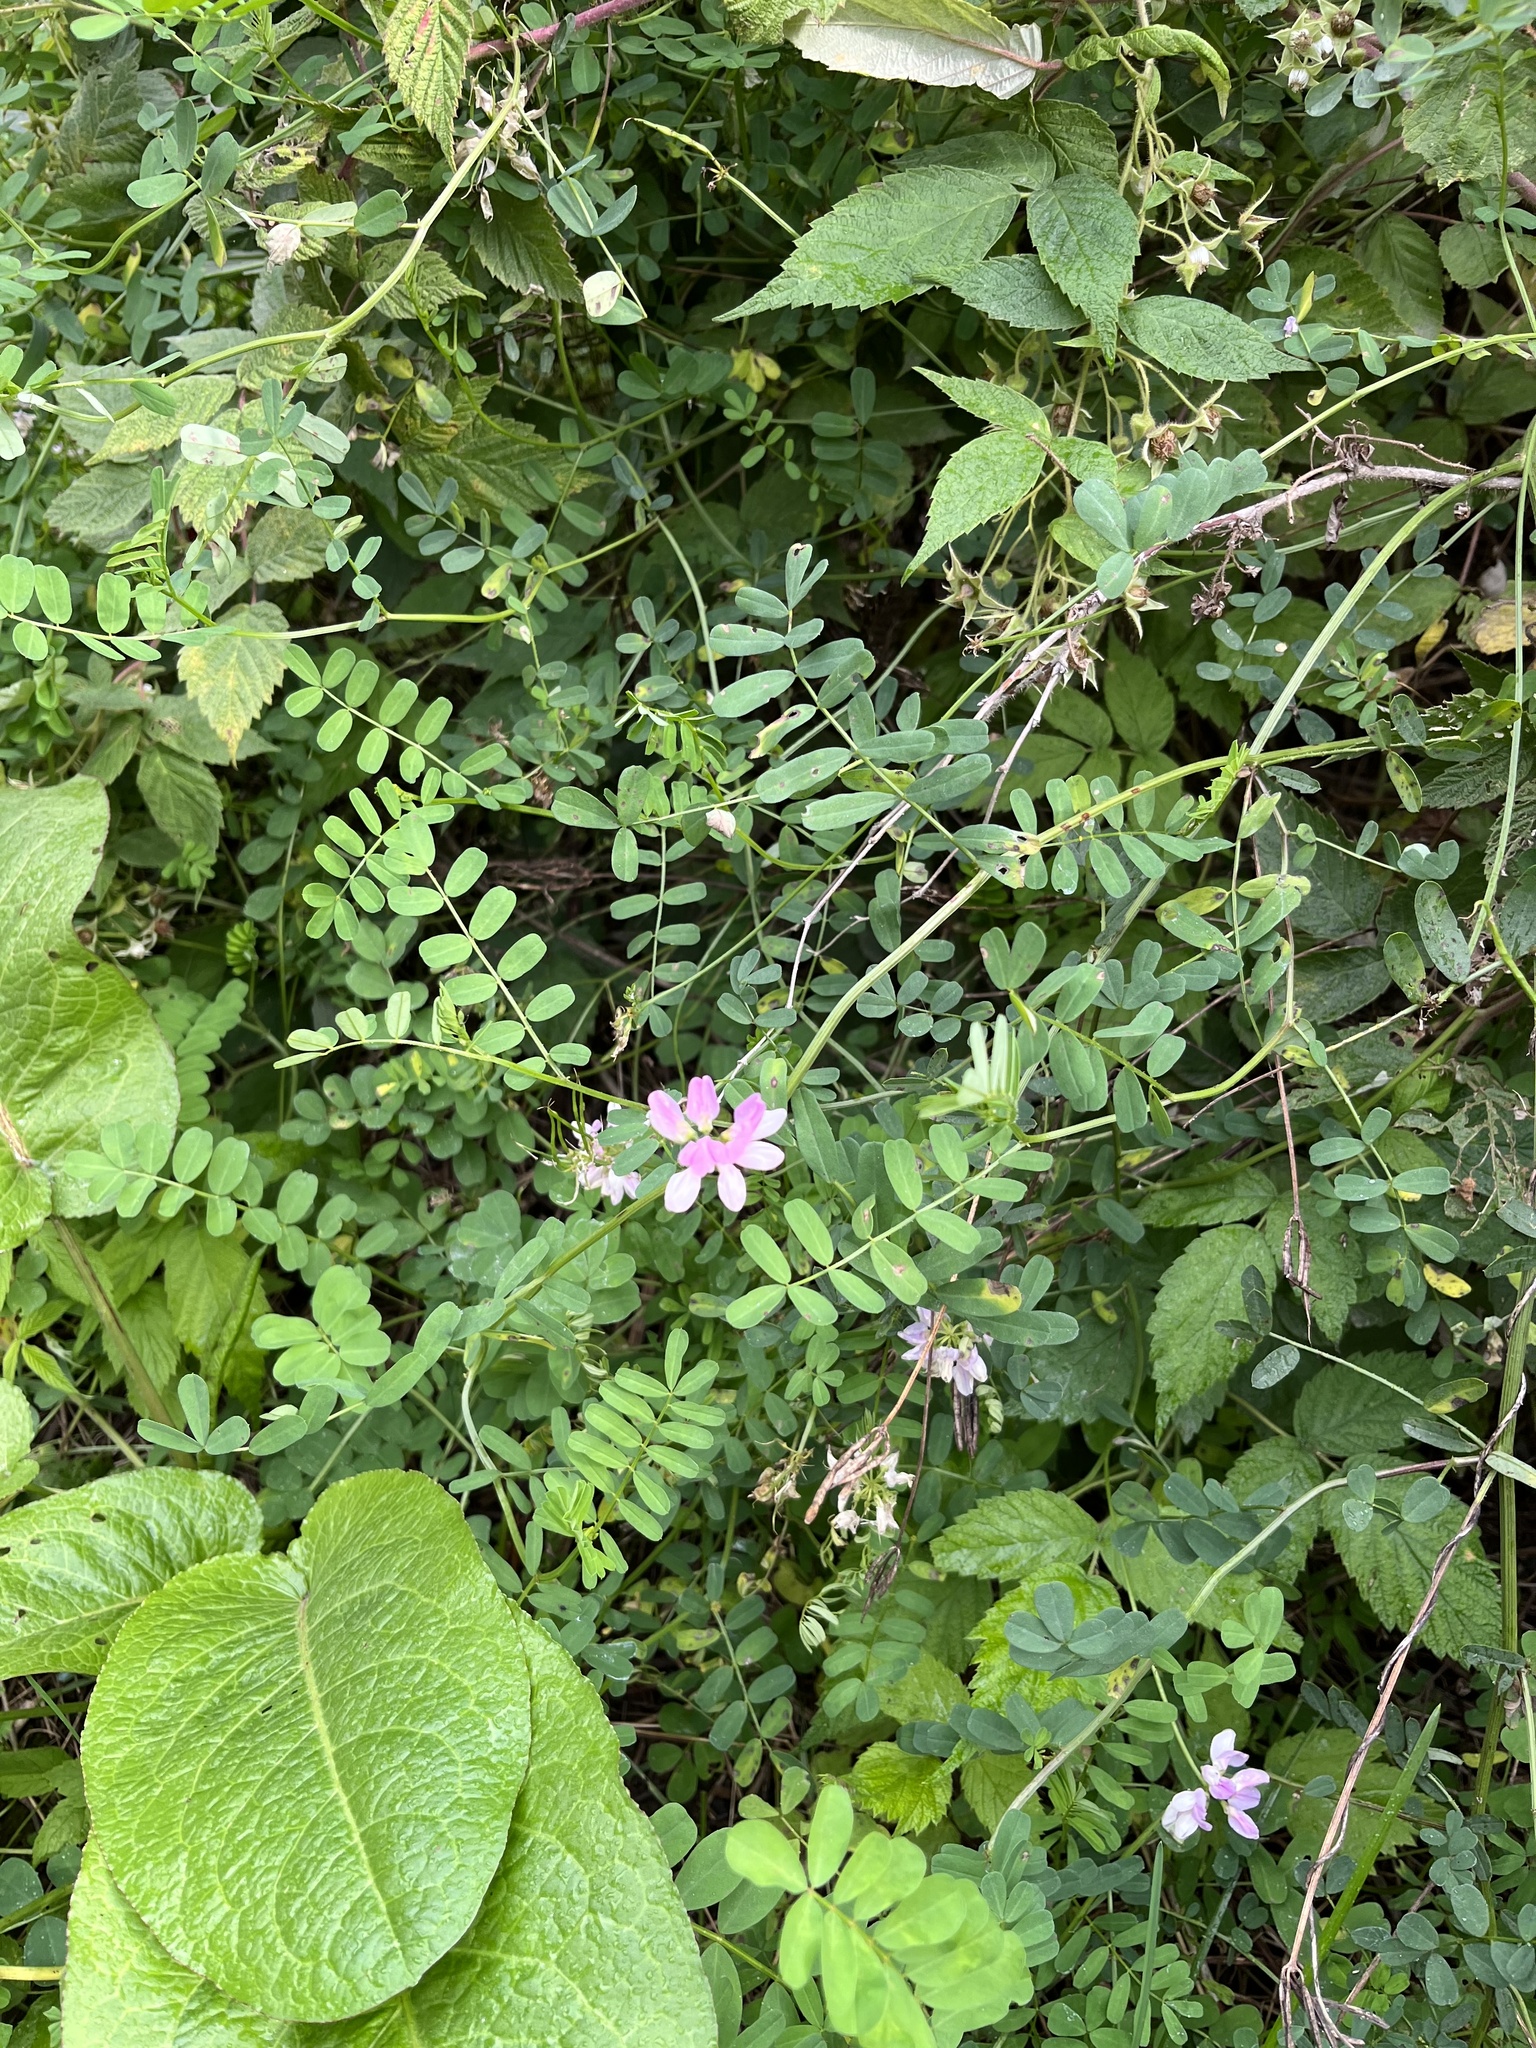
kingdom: Plantae
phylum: Tracheophyta
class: Magnoliopsida
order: Fabales
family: Fabaceae
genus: Coronilla
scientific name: Coronilla varia
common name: Crownvetch
